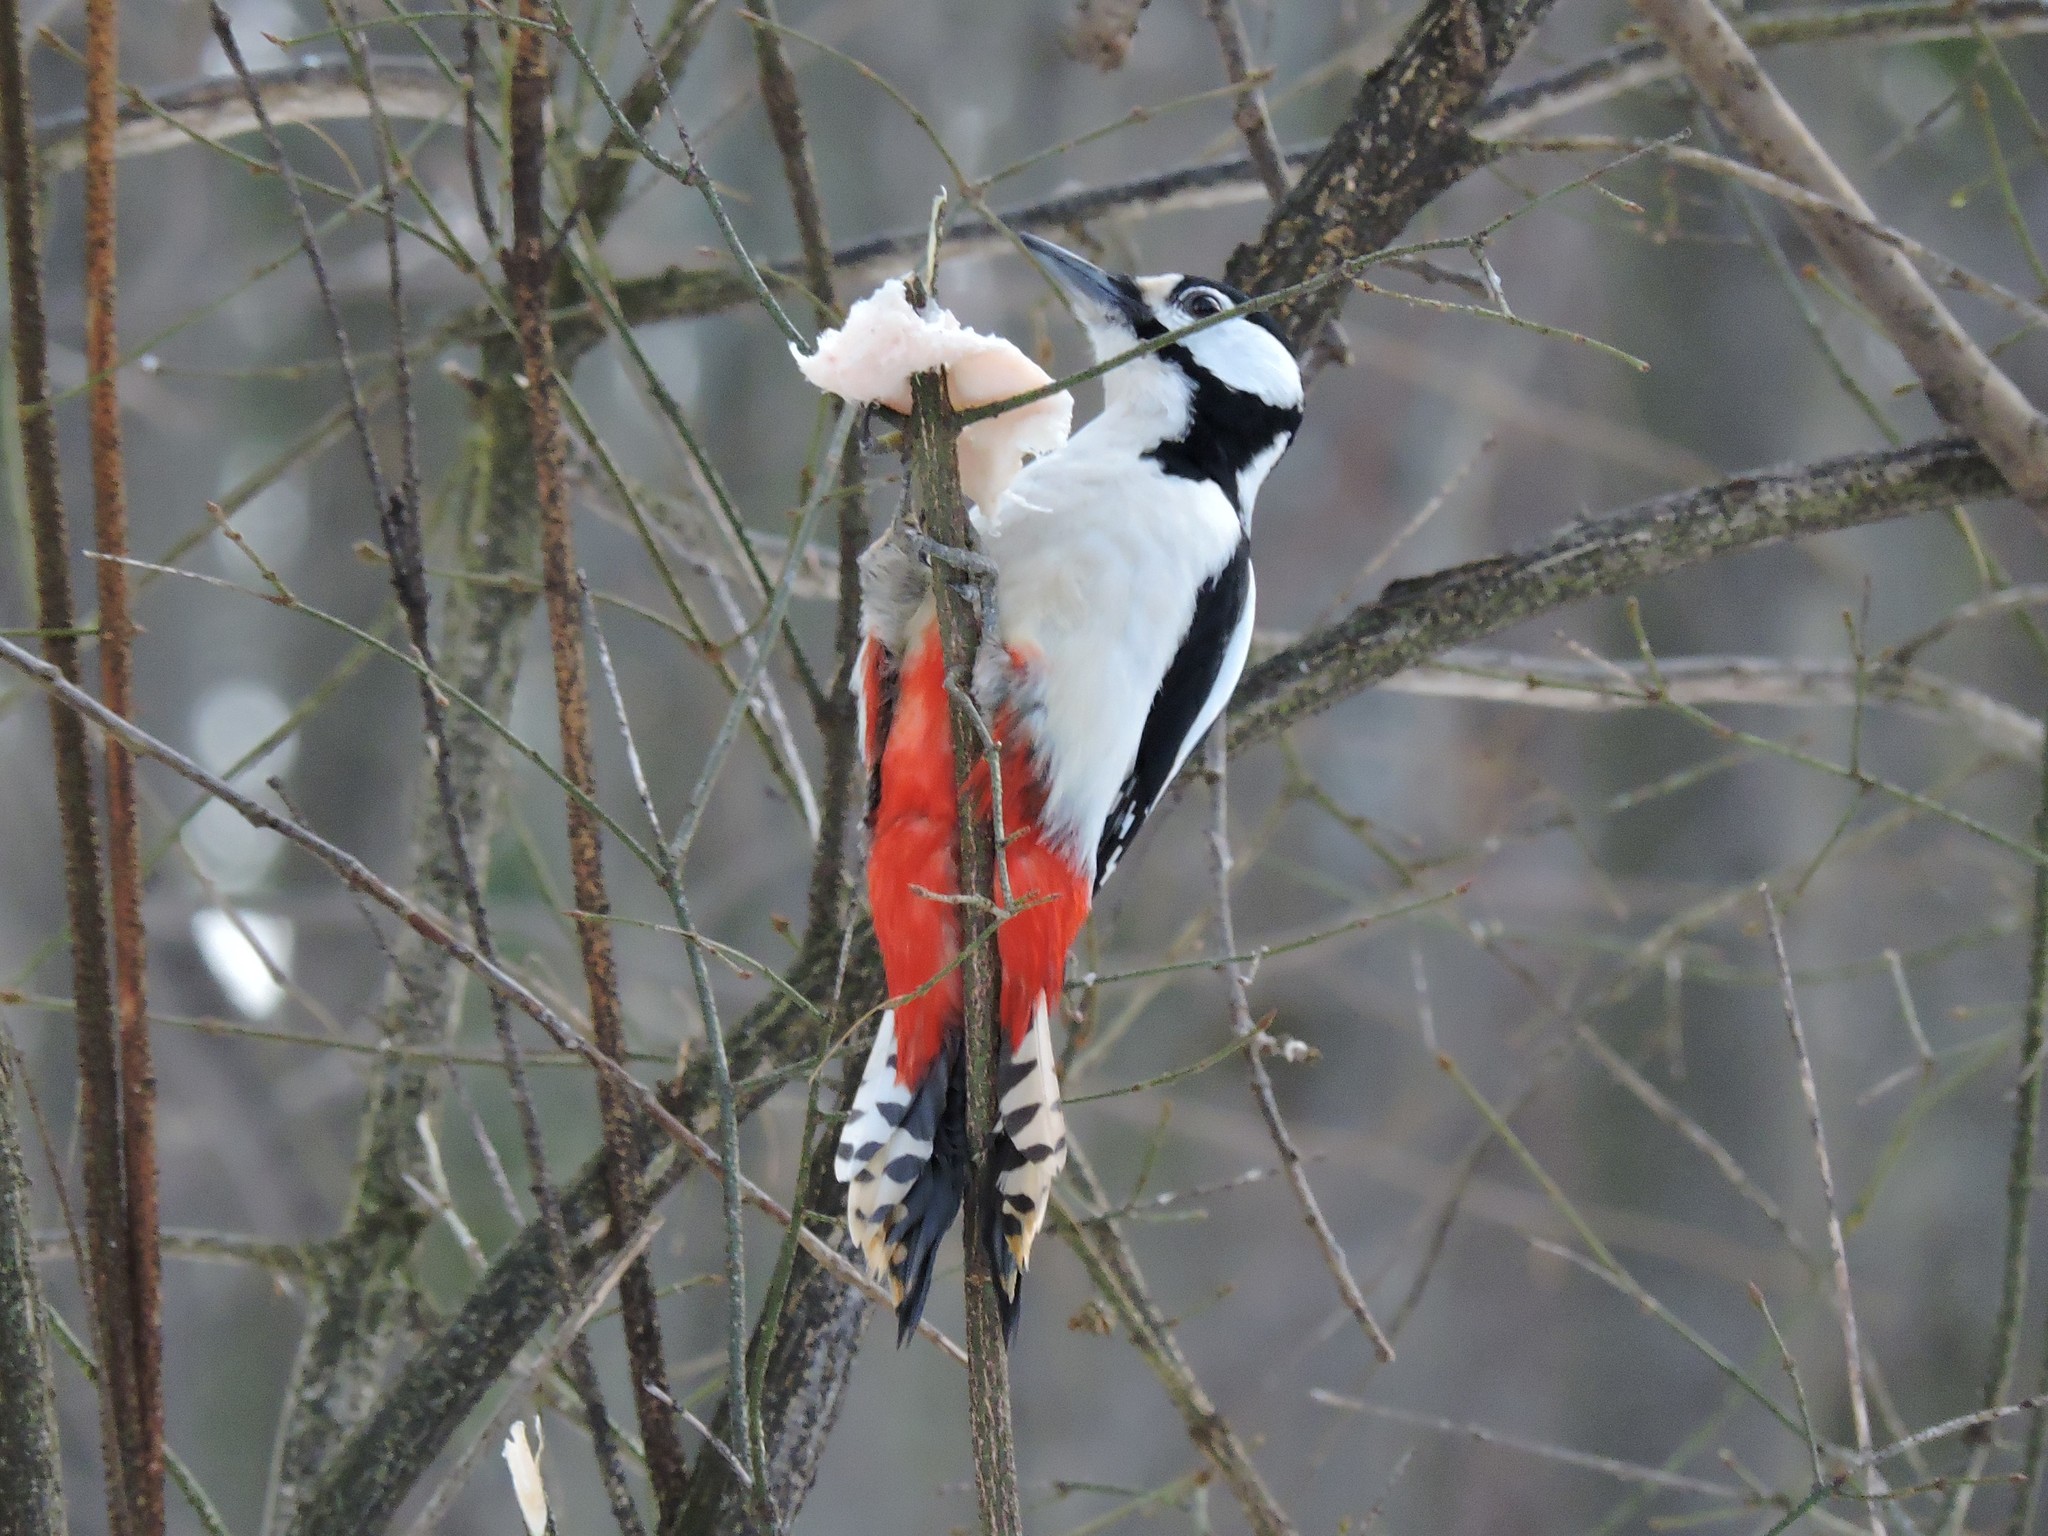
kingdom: Animalia
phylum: Chordata
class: Aves
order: Piciformes
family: Picidae
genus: Dendrocopos
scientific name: Dendrocopos major
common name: Great spotted woodpecker
